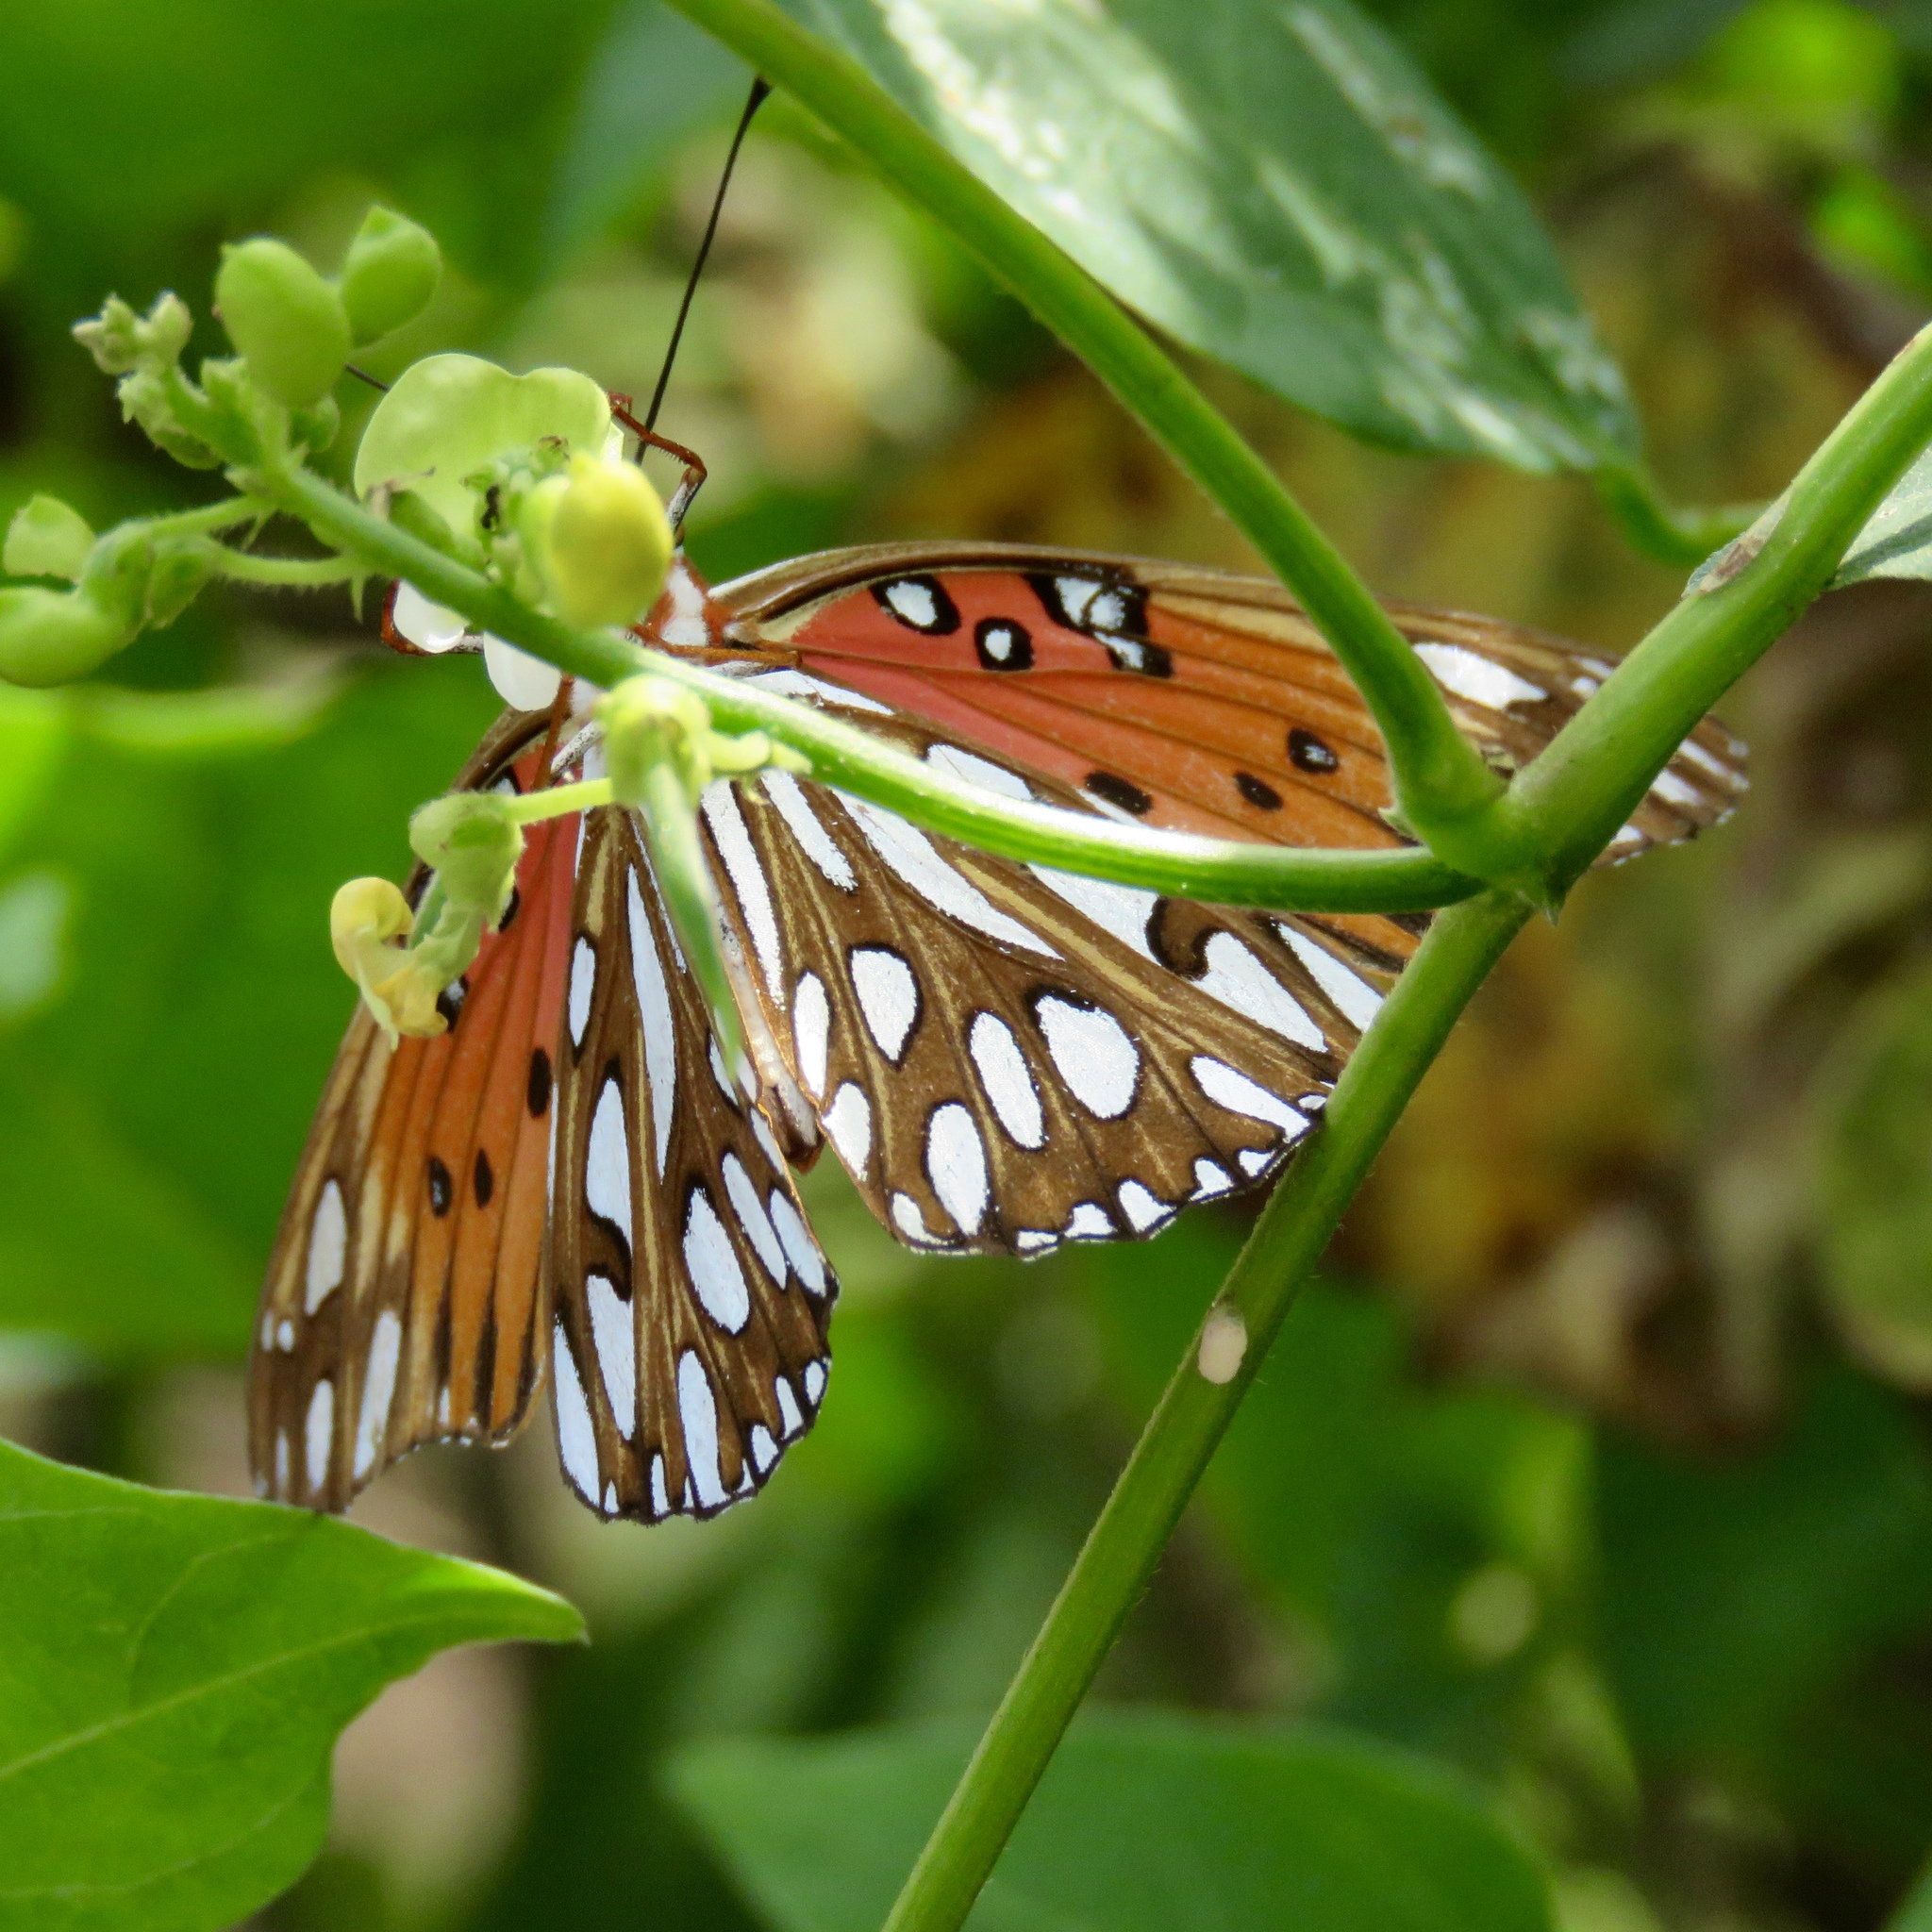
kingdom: Animalia
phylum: Arthropoda
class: Insecta
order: Lepidoptera
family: Nymphalidae
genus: Dione
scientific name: Dione vanillae
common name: Gulf fritillary
